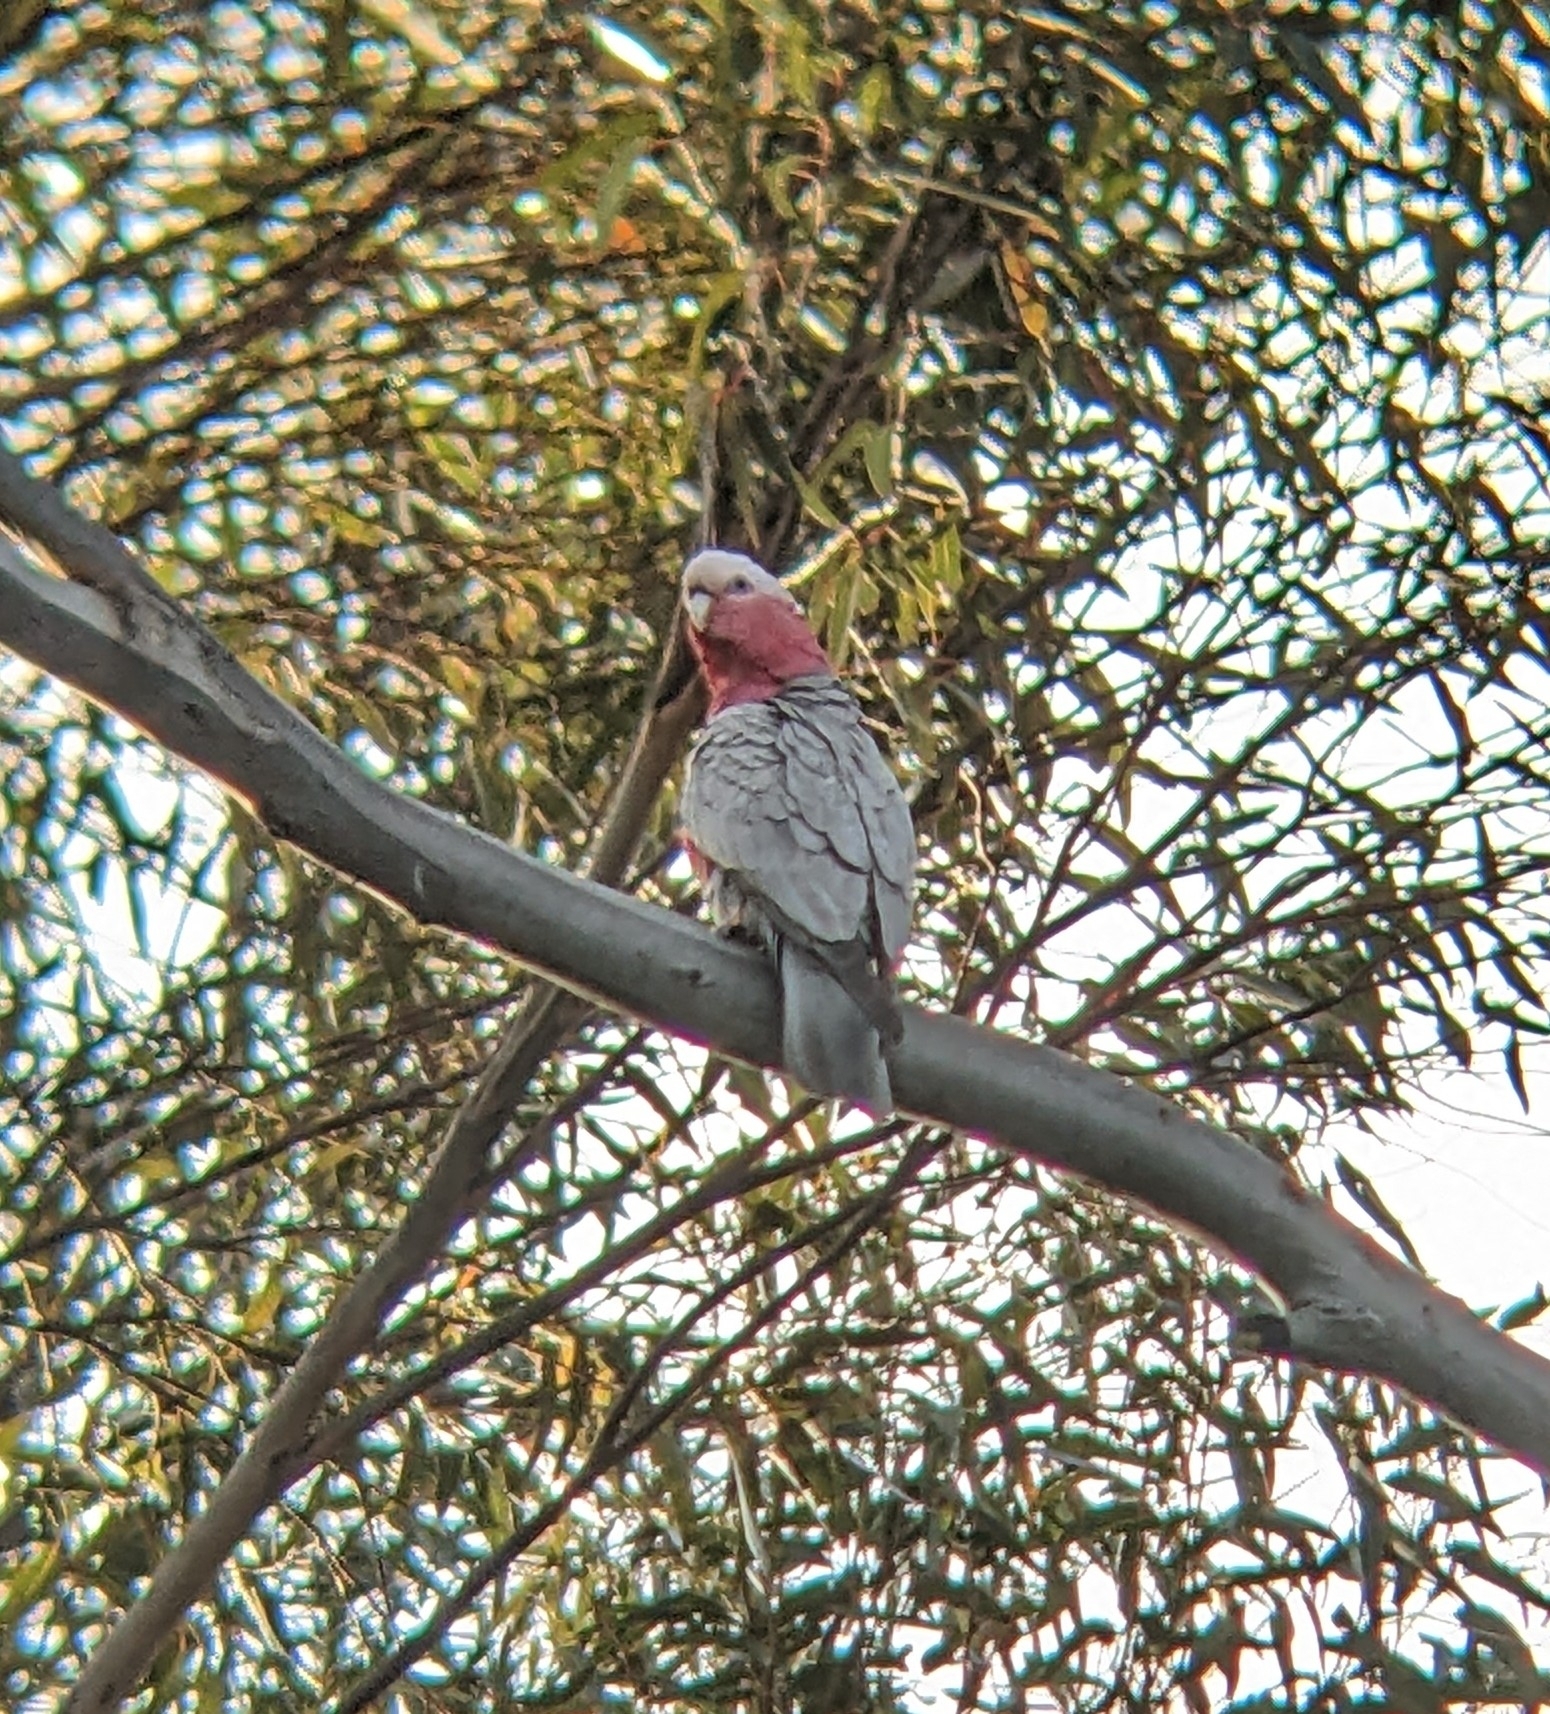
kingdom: Animalia
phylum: Chordata
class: Aves
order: Psittaciformes
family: Psittacidae
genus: Eolophus
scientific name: Eolophus roseicapilla
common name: Galah
